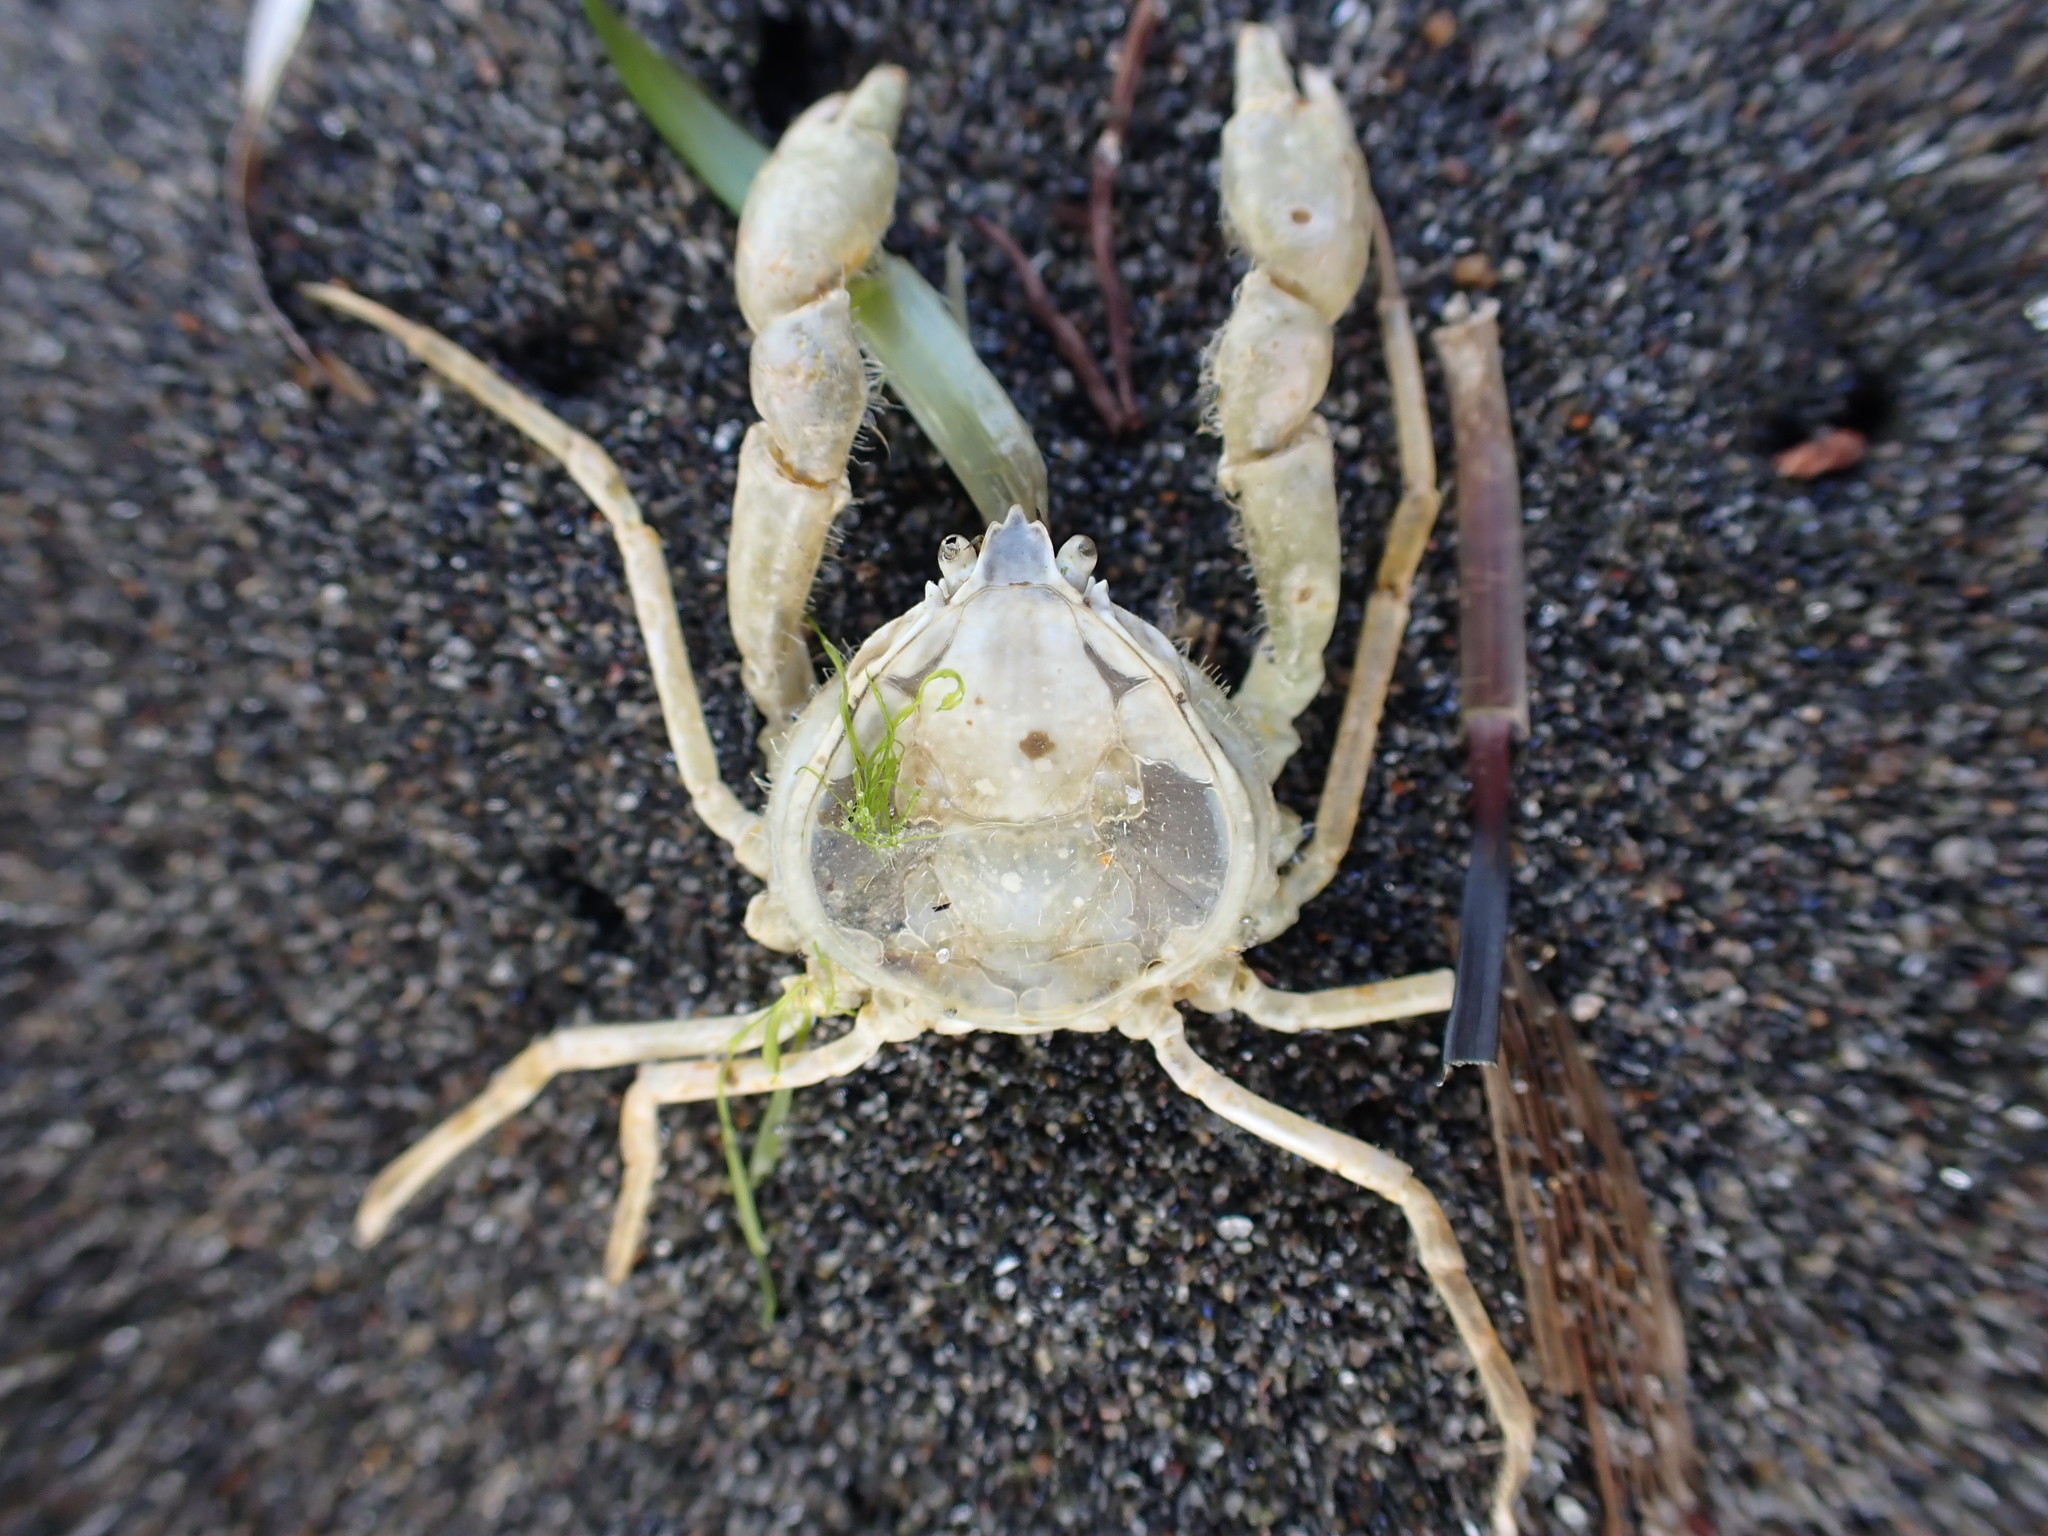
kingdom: Animalia
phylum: Arthropoda
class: Malacostraca
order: Decapoda
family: Hymenosomatidae
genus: Halicarcinus
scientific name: Halicarcinus whitei
